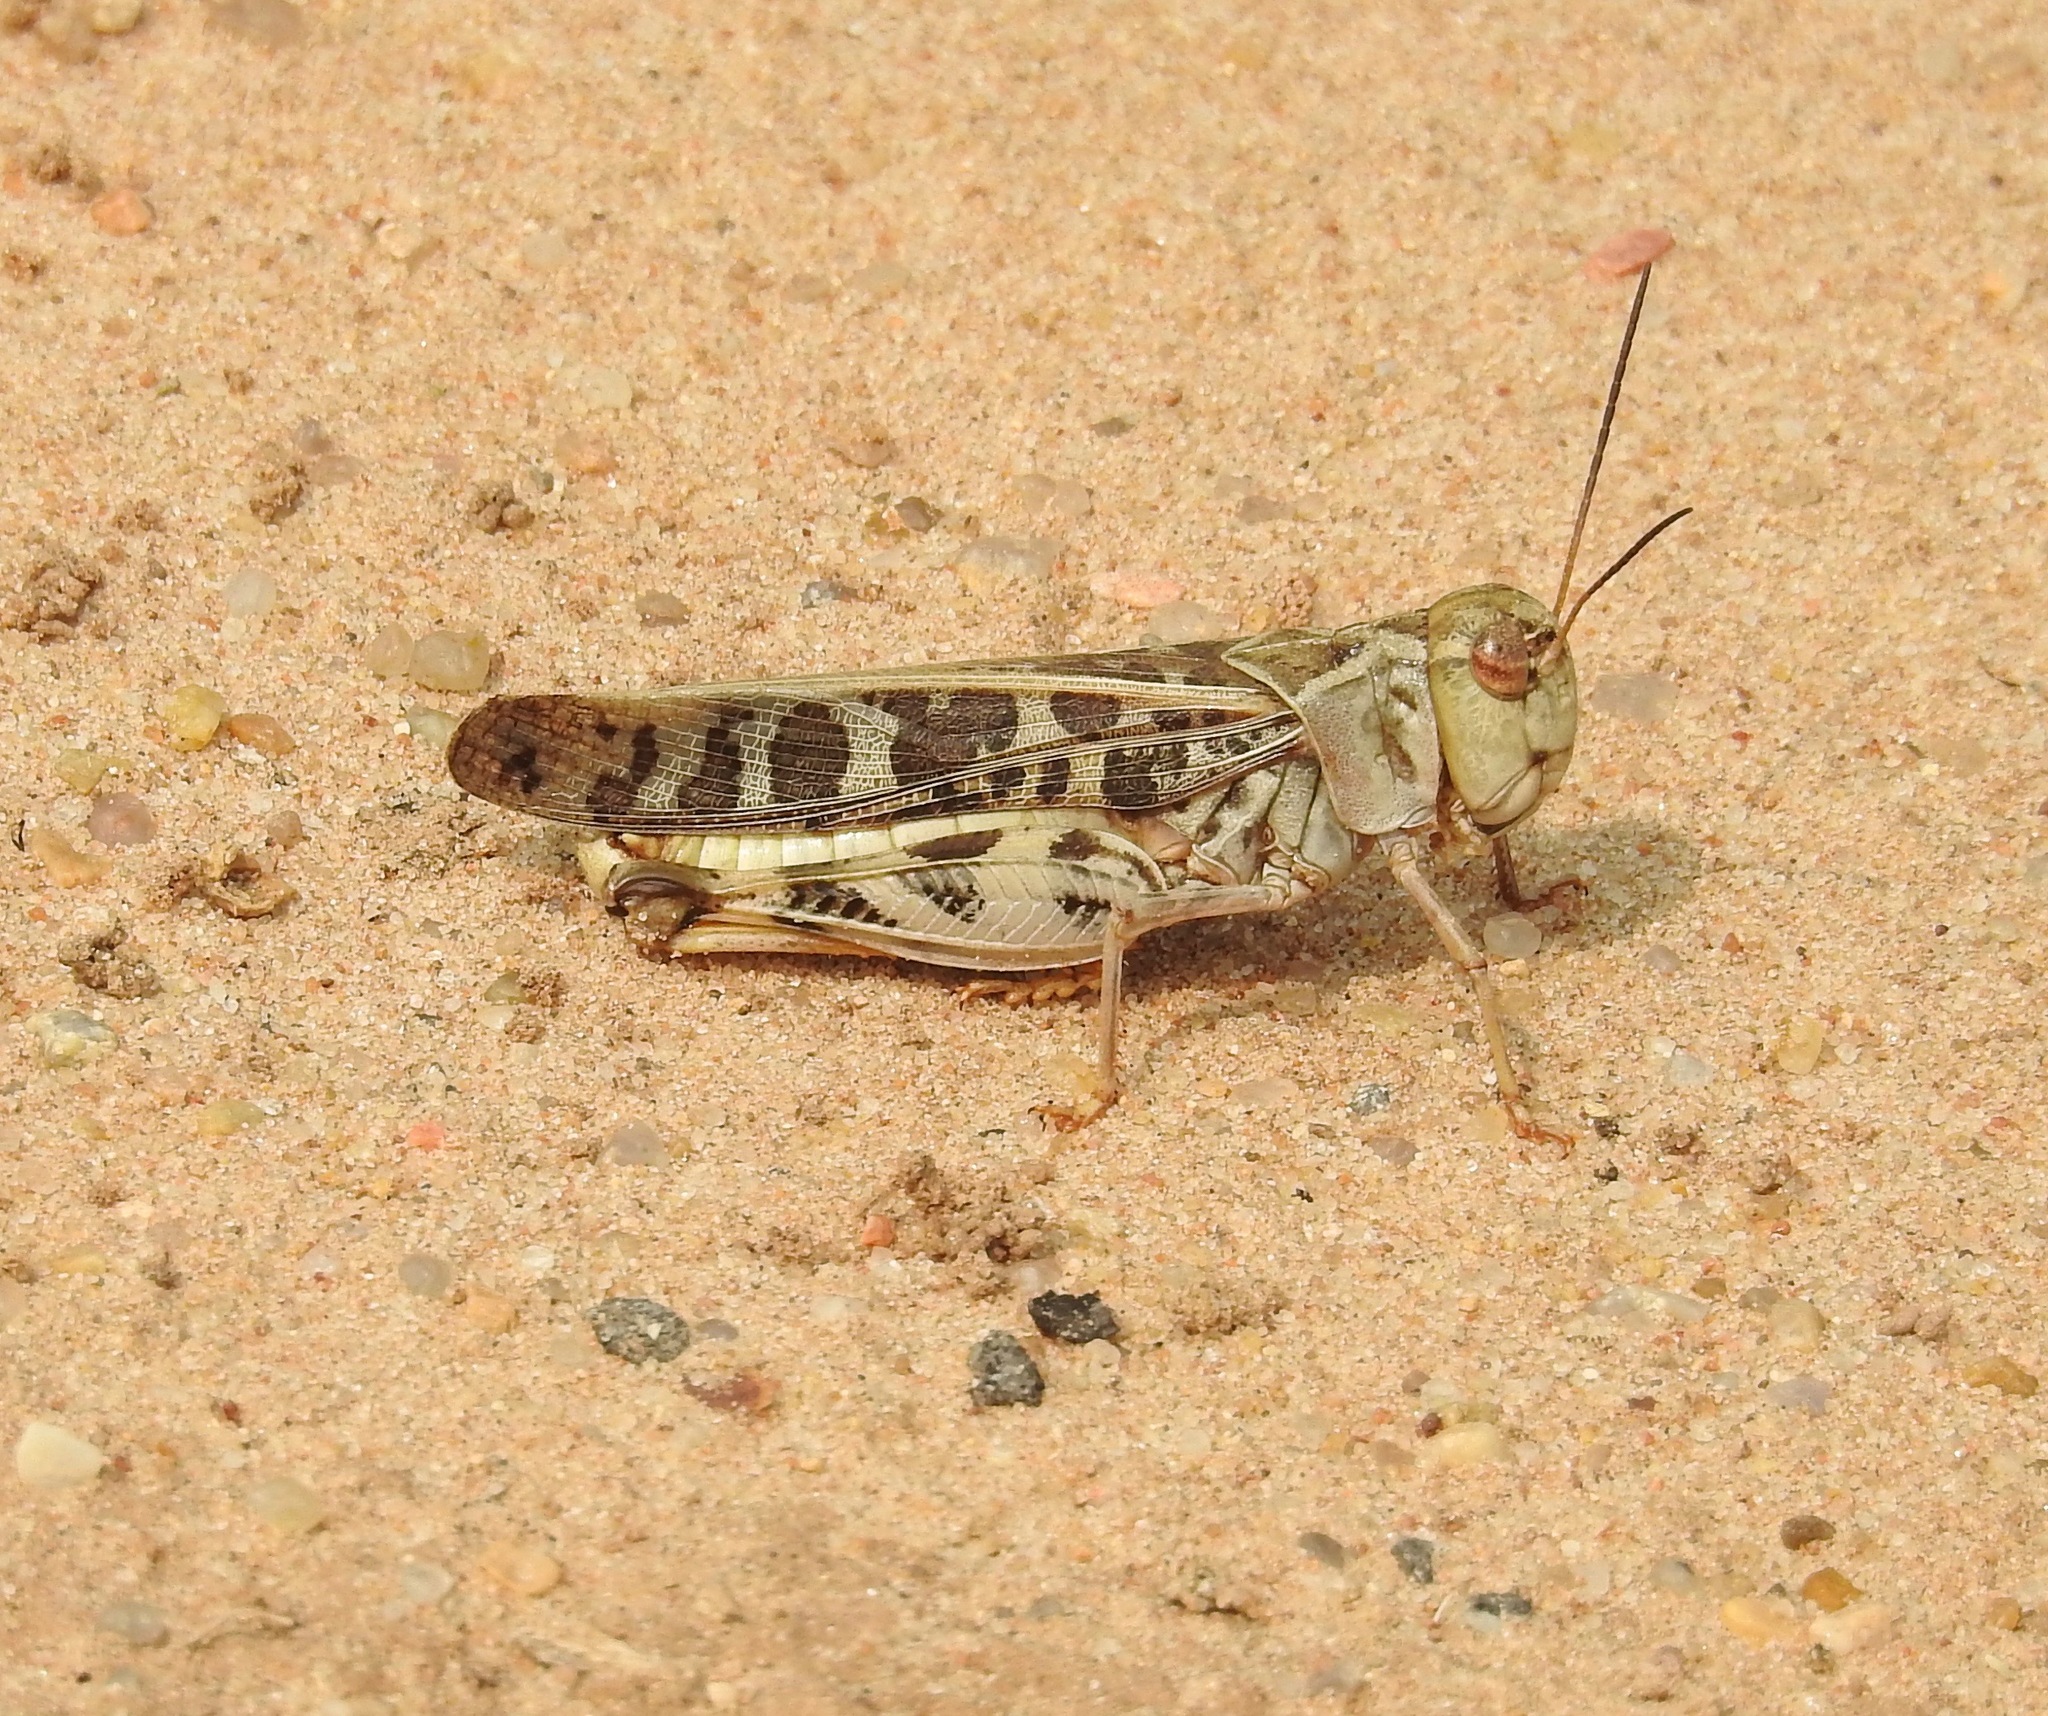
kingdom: Animalia
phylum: Arthropoda
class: Insecta
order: Orthoptera
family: Acrididae
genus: Hippiscus
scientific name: Hippiscus ocelote
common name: Wrinkled grasshopper
